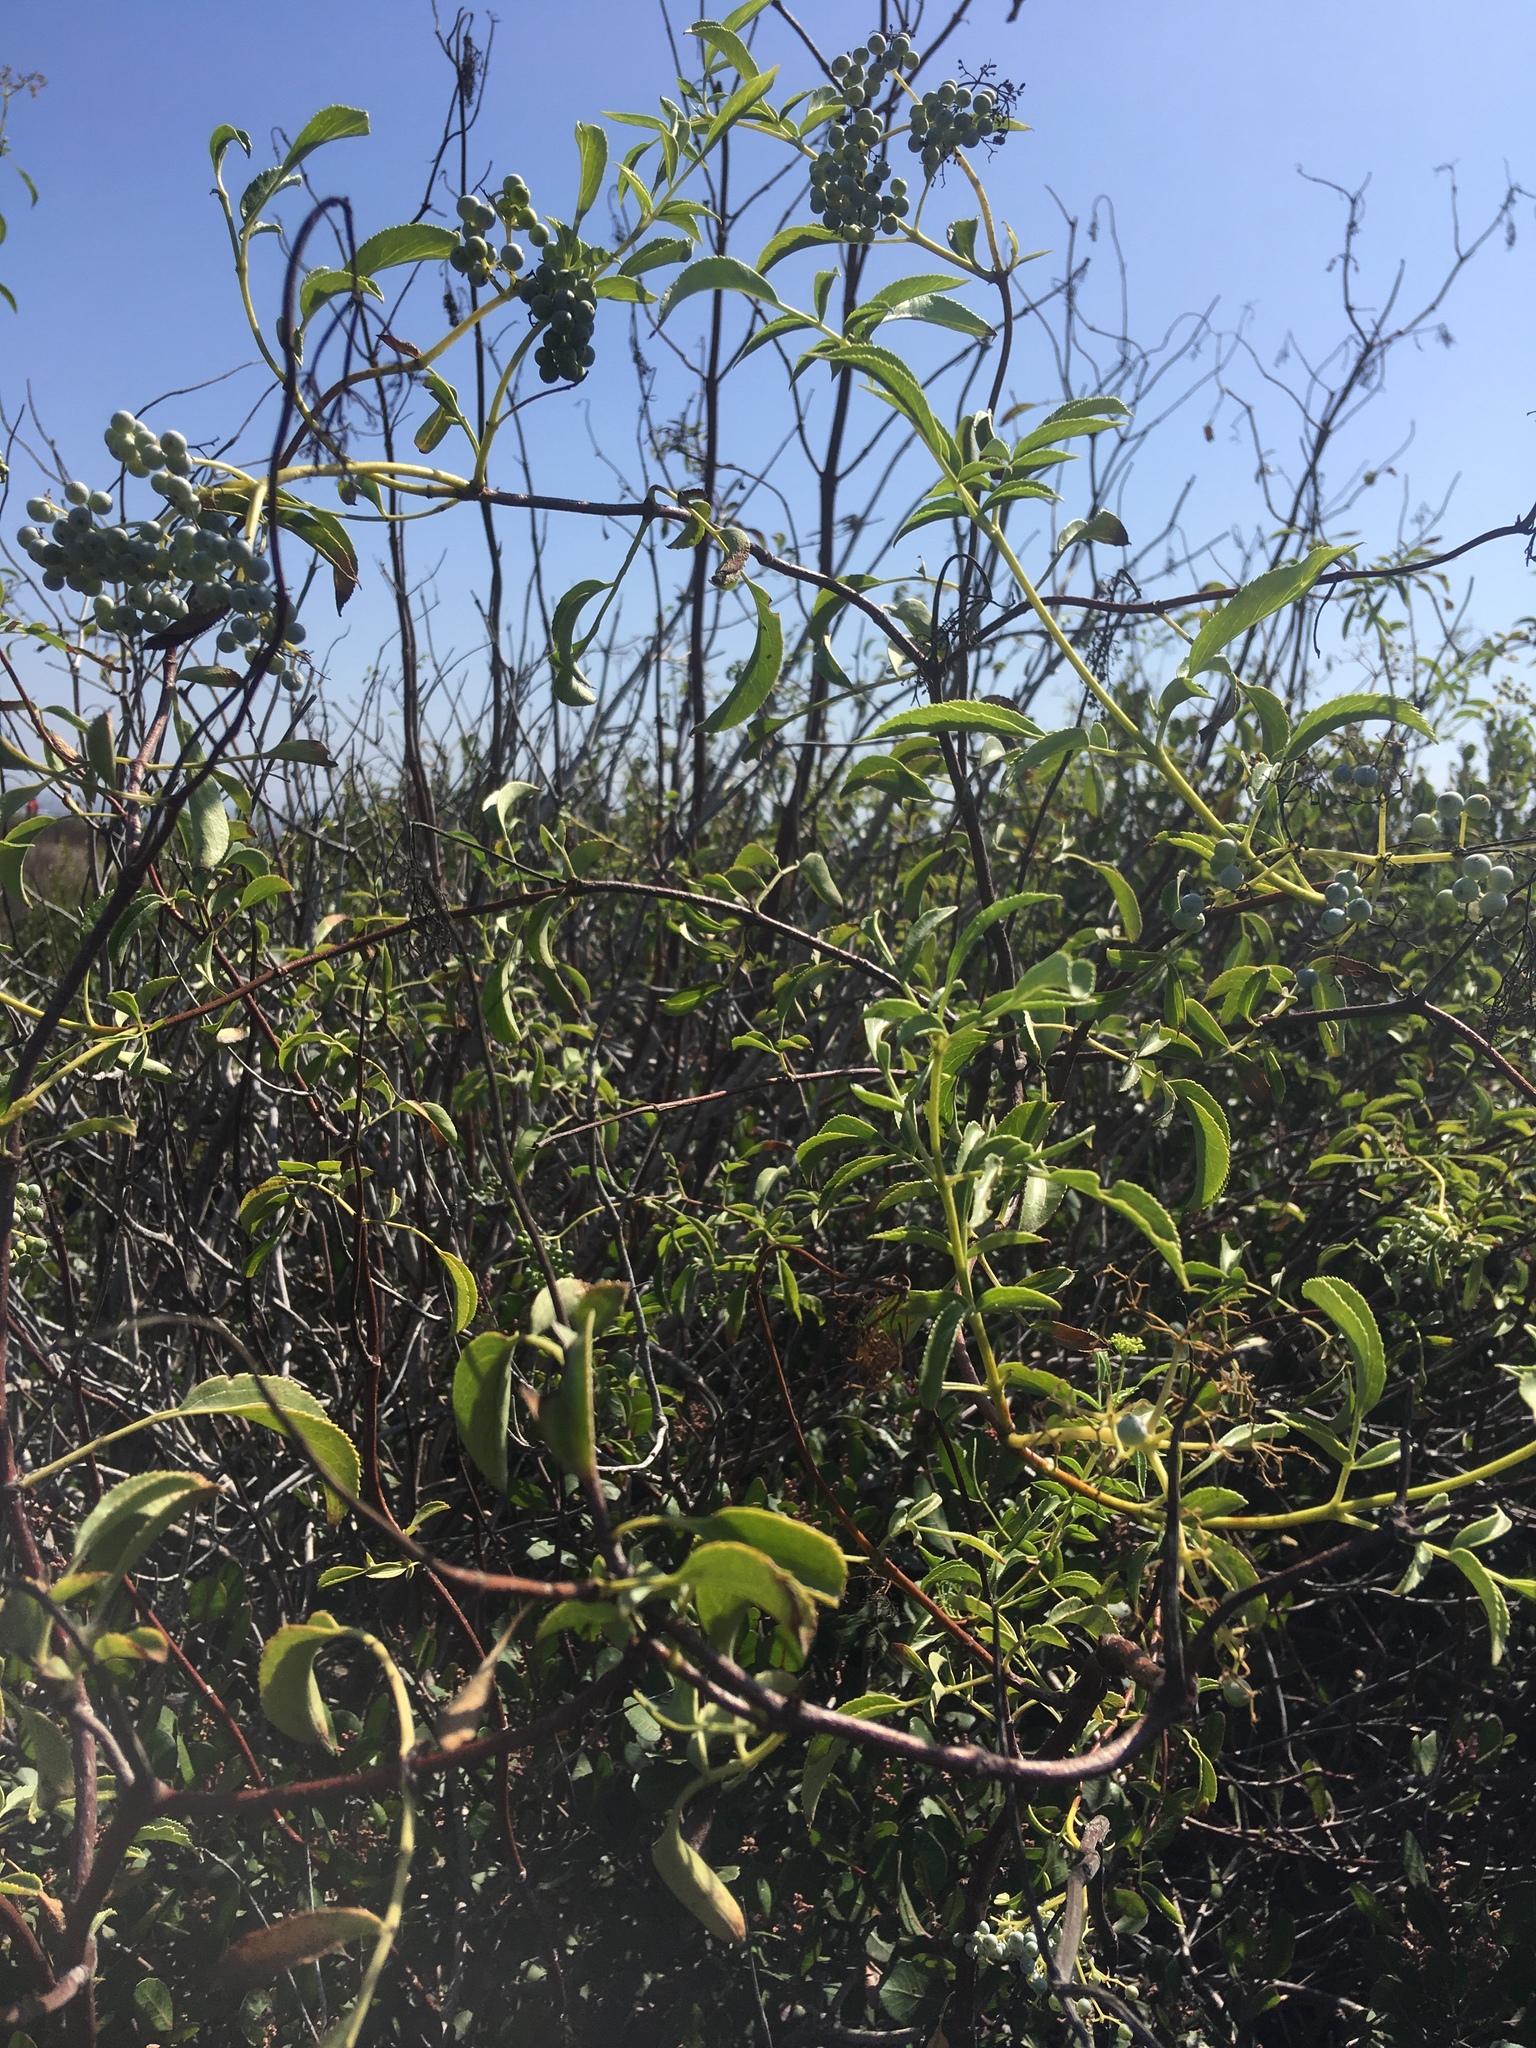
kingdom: Plantae
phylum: Tracheophyta
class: Magnoliopsida
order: Dipsacales
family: Viburnaceae
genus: Sambucus
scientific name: Sambucus cerulea
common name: Blue elder
